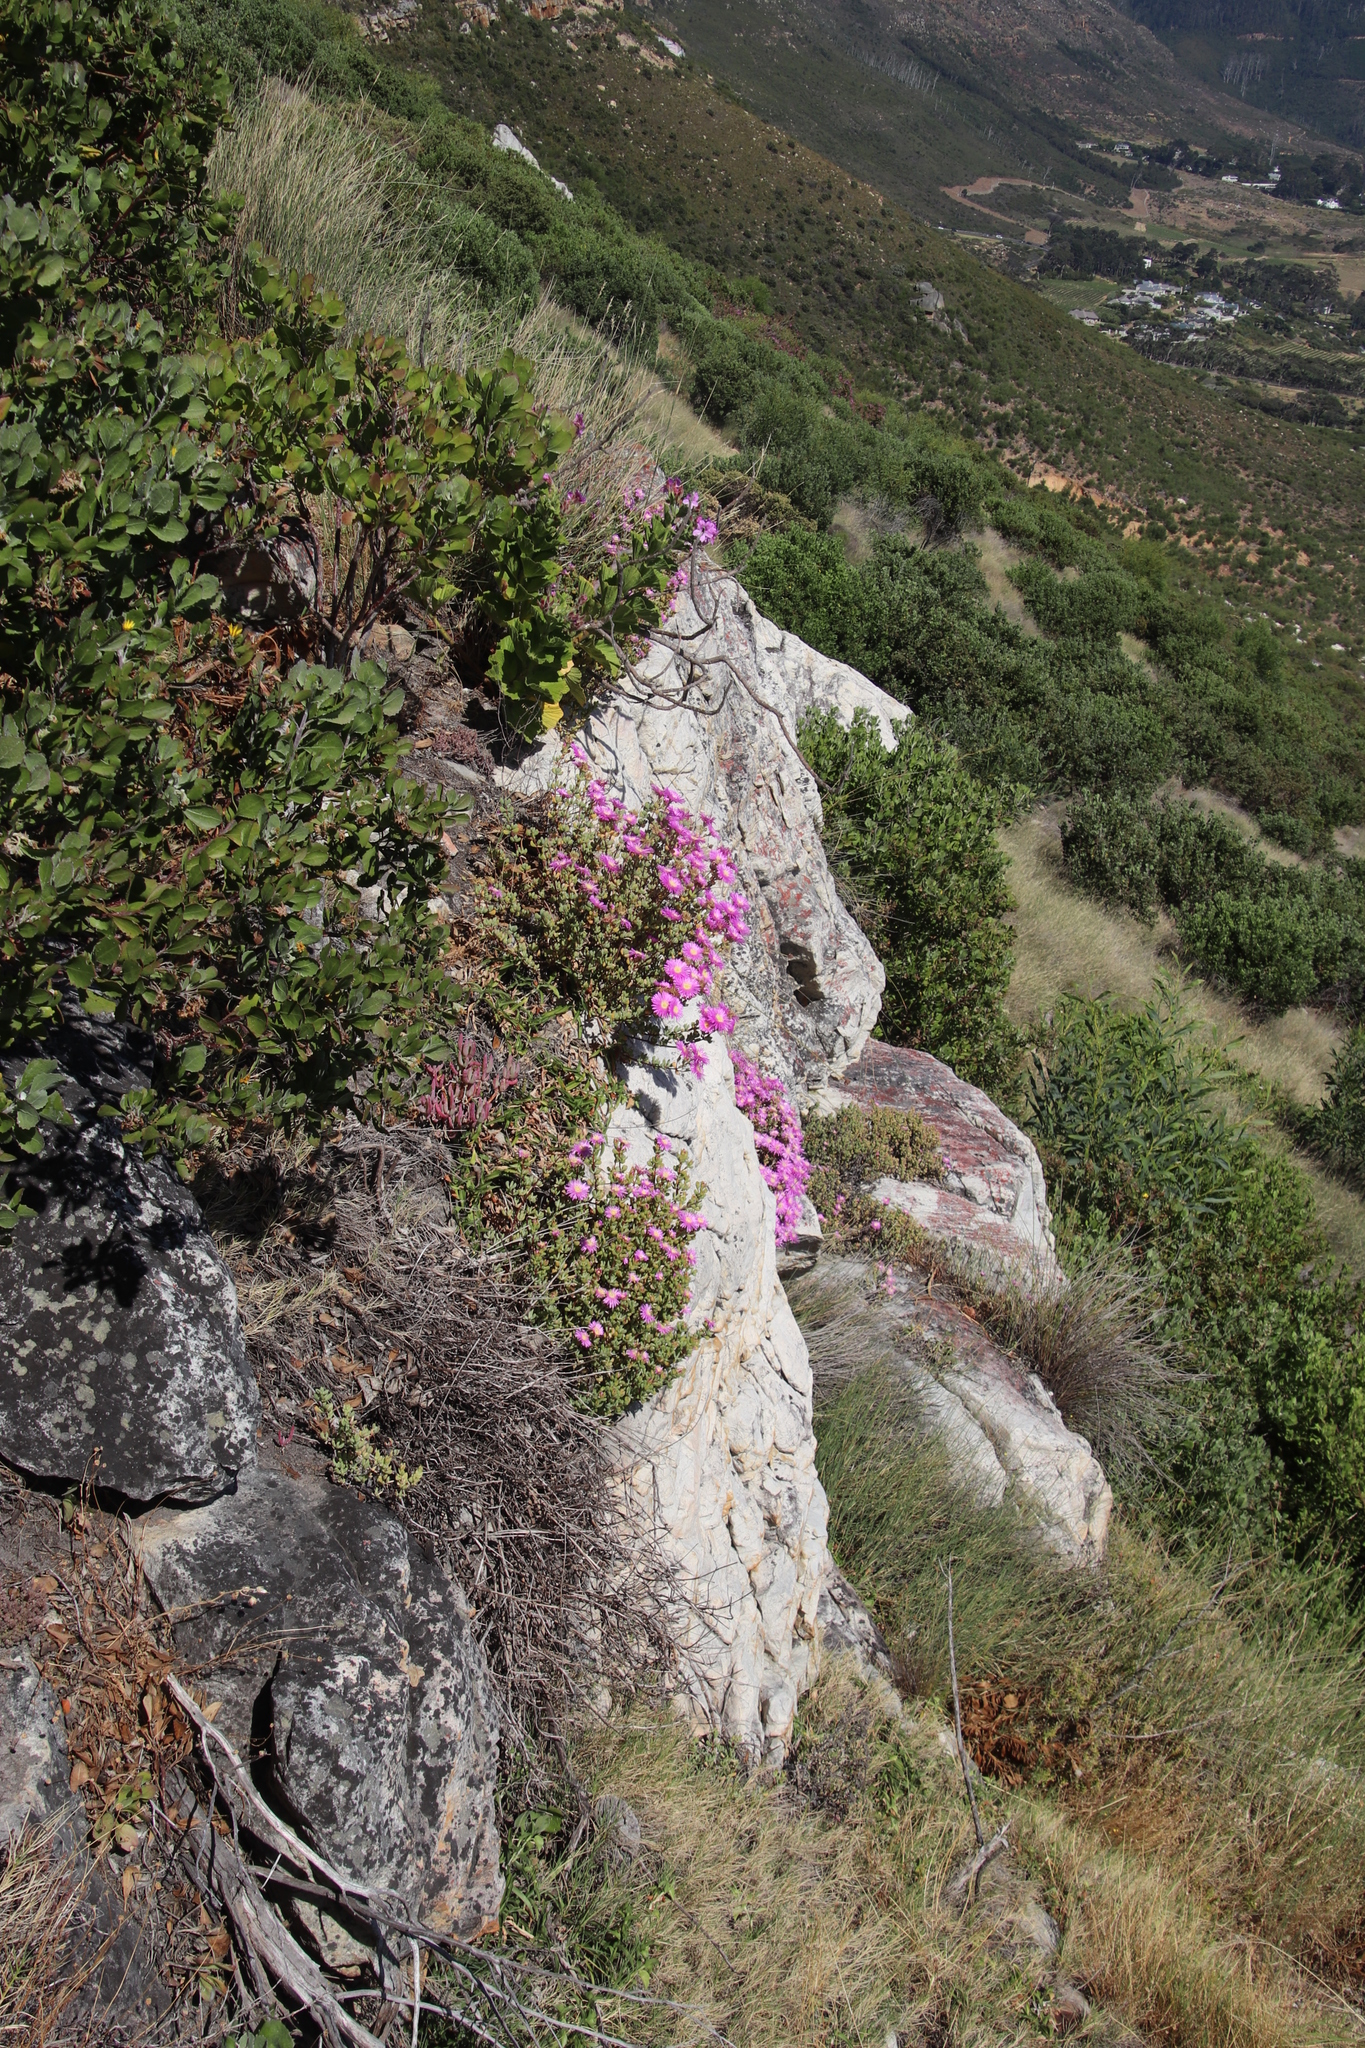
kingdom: Plantae
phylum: Tracheophyta
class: Magnoliopsida
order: Caryophyllales
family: Aizoaceae
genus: Oscularia
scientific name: Oscularia falciformis
